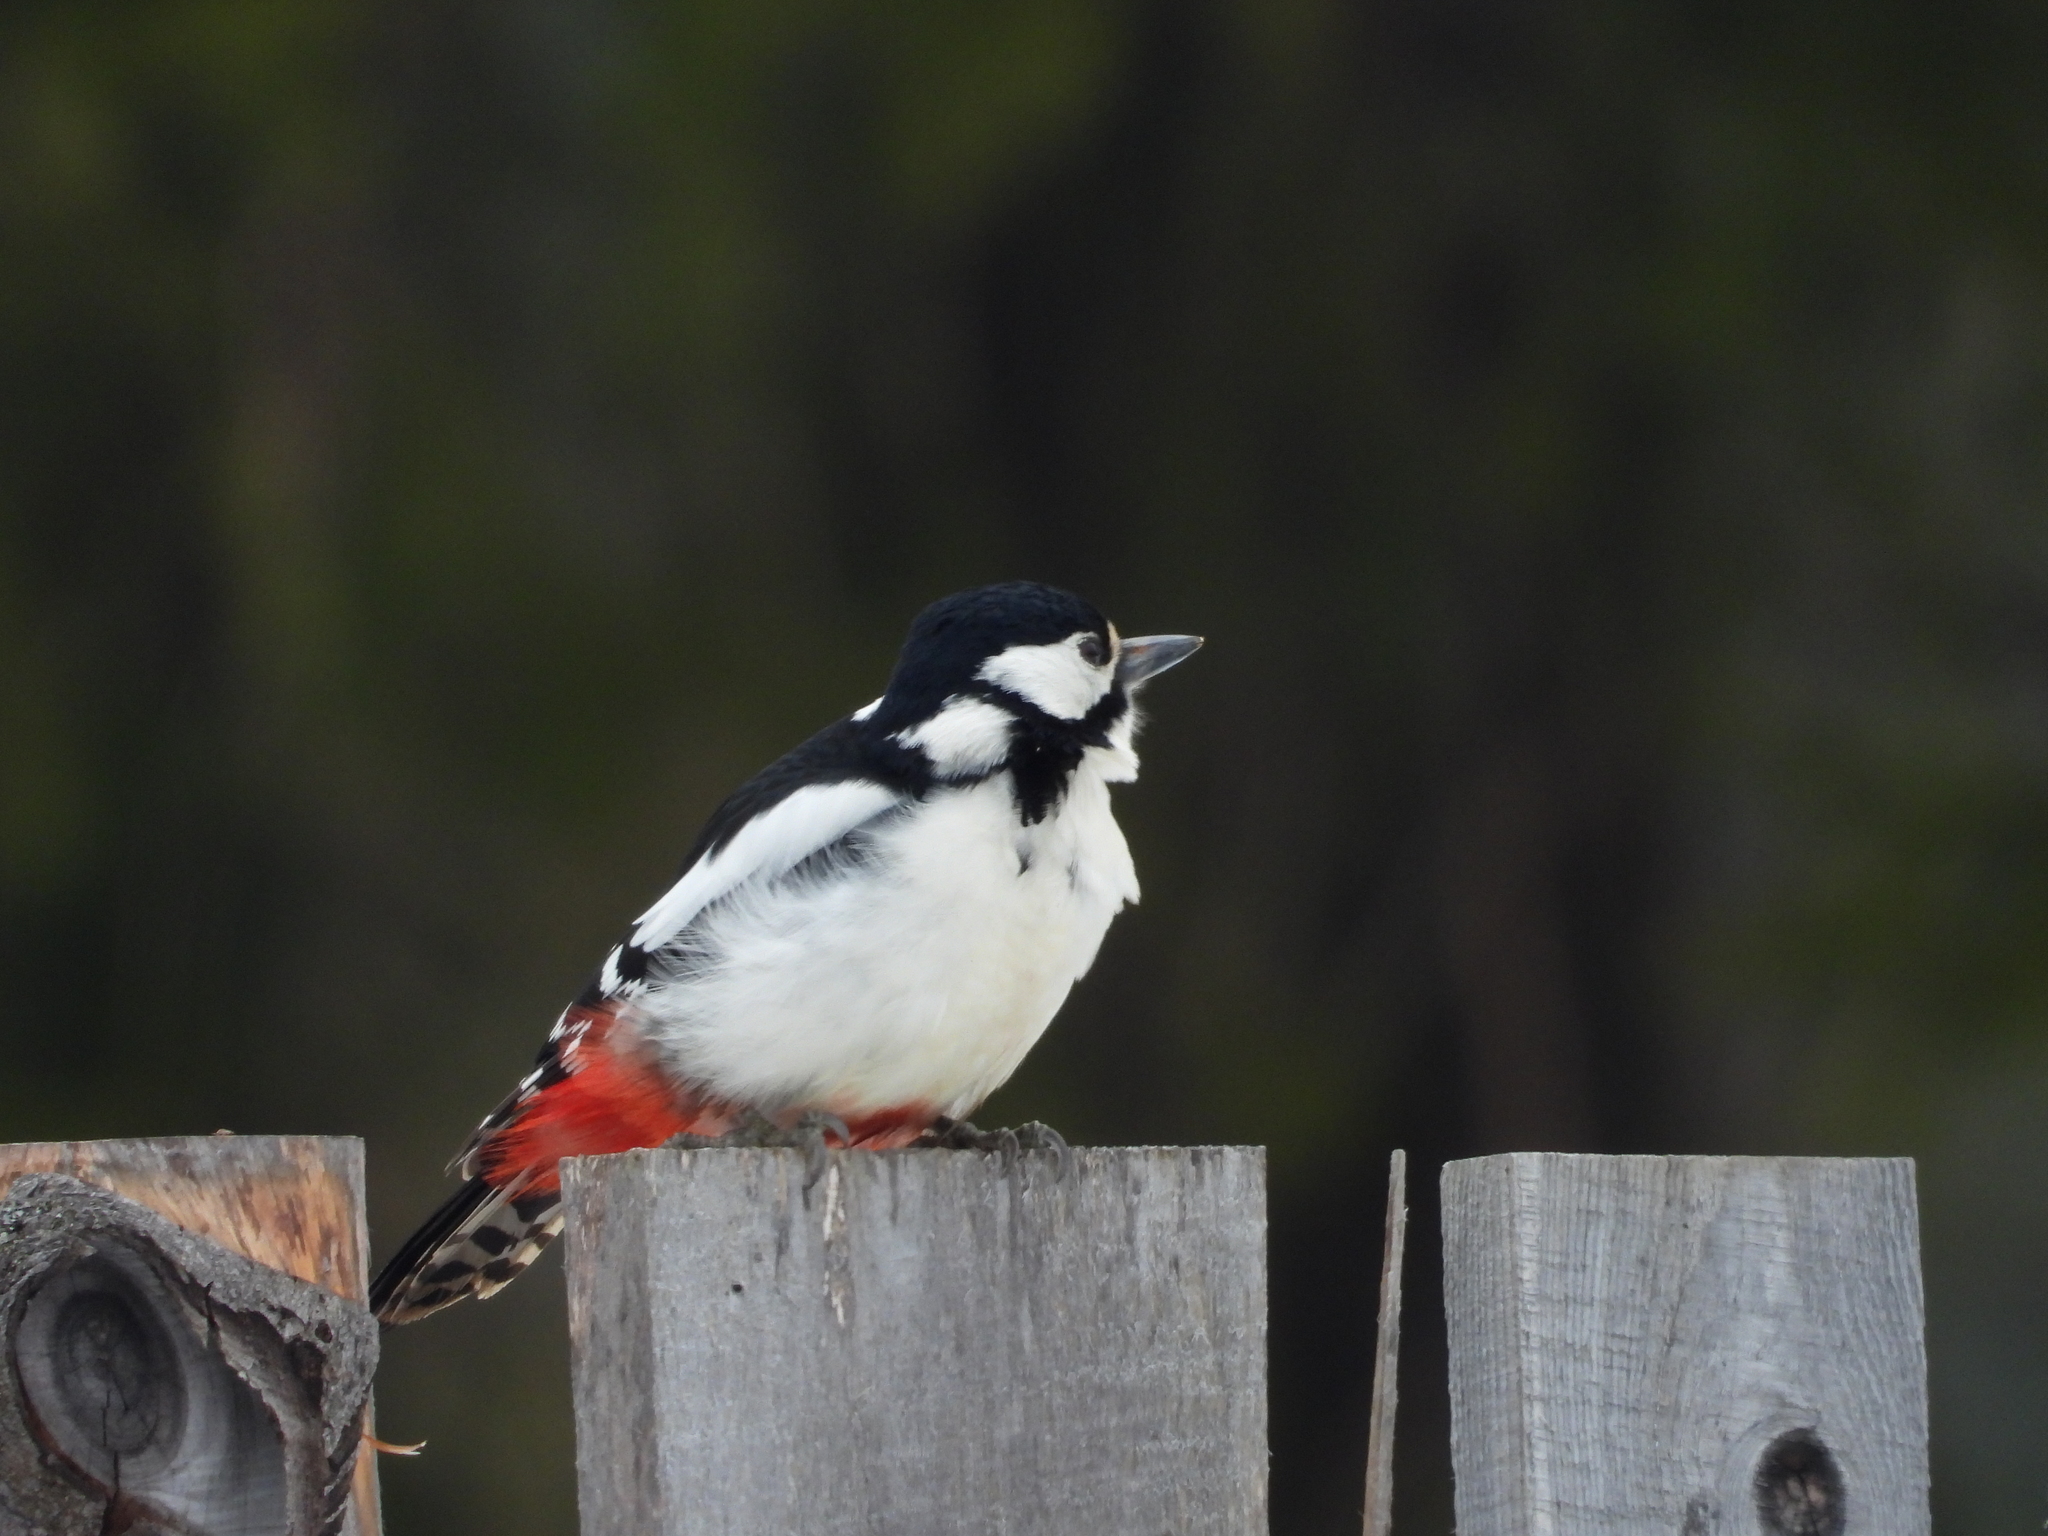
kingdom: Animalia
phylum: Chordata
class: Aves
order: Piciformes
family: Picidae
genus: Dendrocopos
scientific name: Dendrocopos major
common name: Great spotted woodpecker
